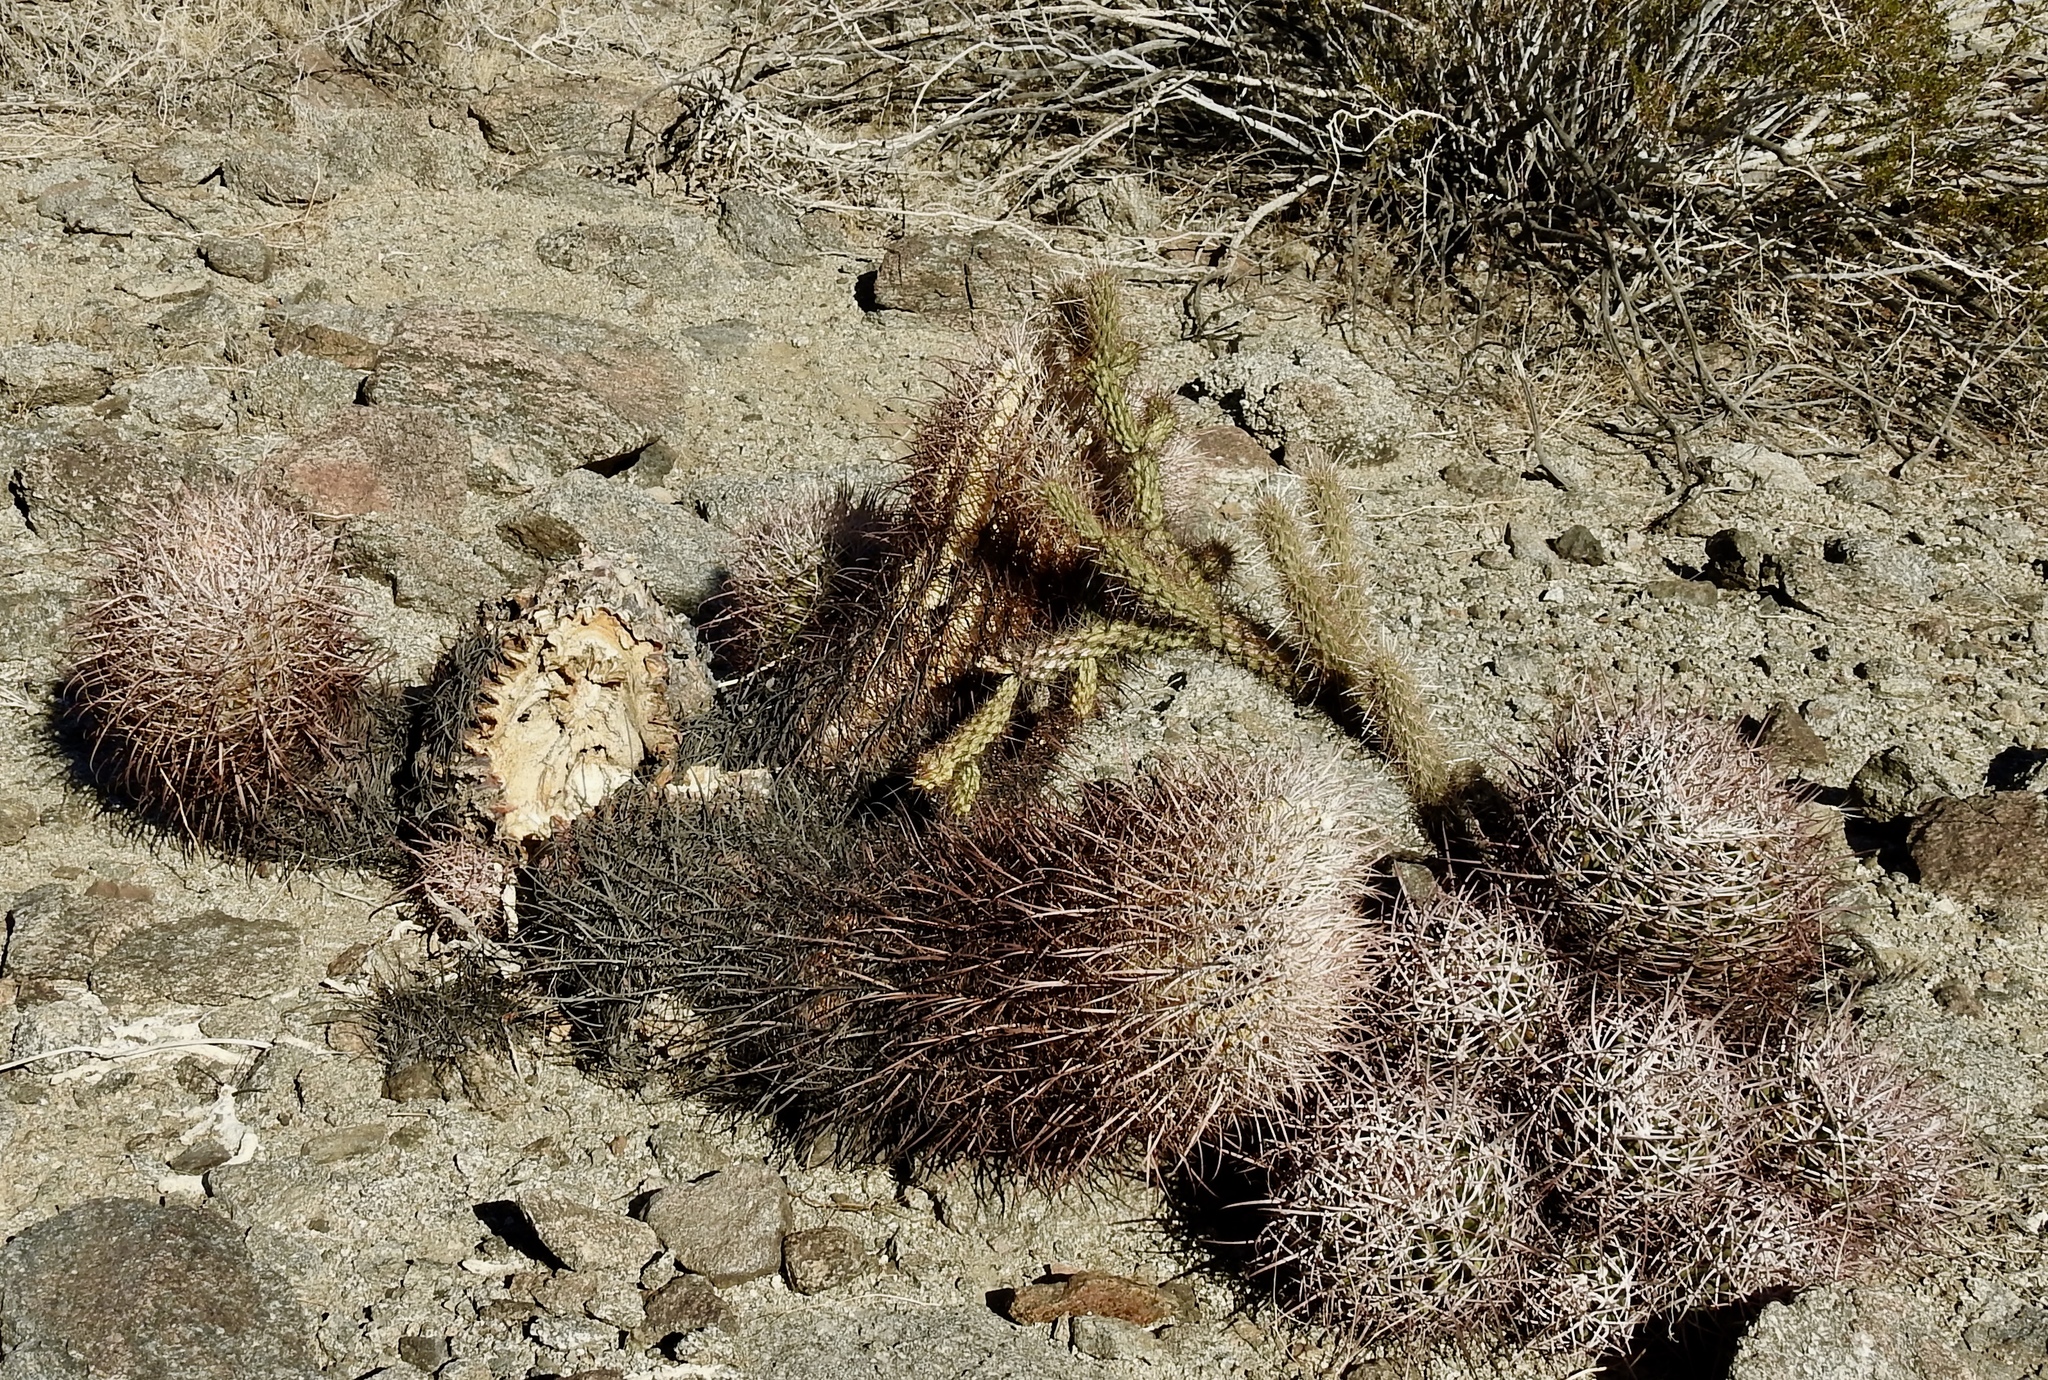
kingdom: Plantae
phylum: Tracheophyta
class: Magnoliopsida
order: Caryophyllales
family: Cactaceae
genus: Ferocactus
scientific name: Ferocactus cylindraceus
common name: California barrel cactus
